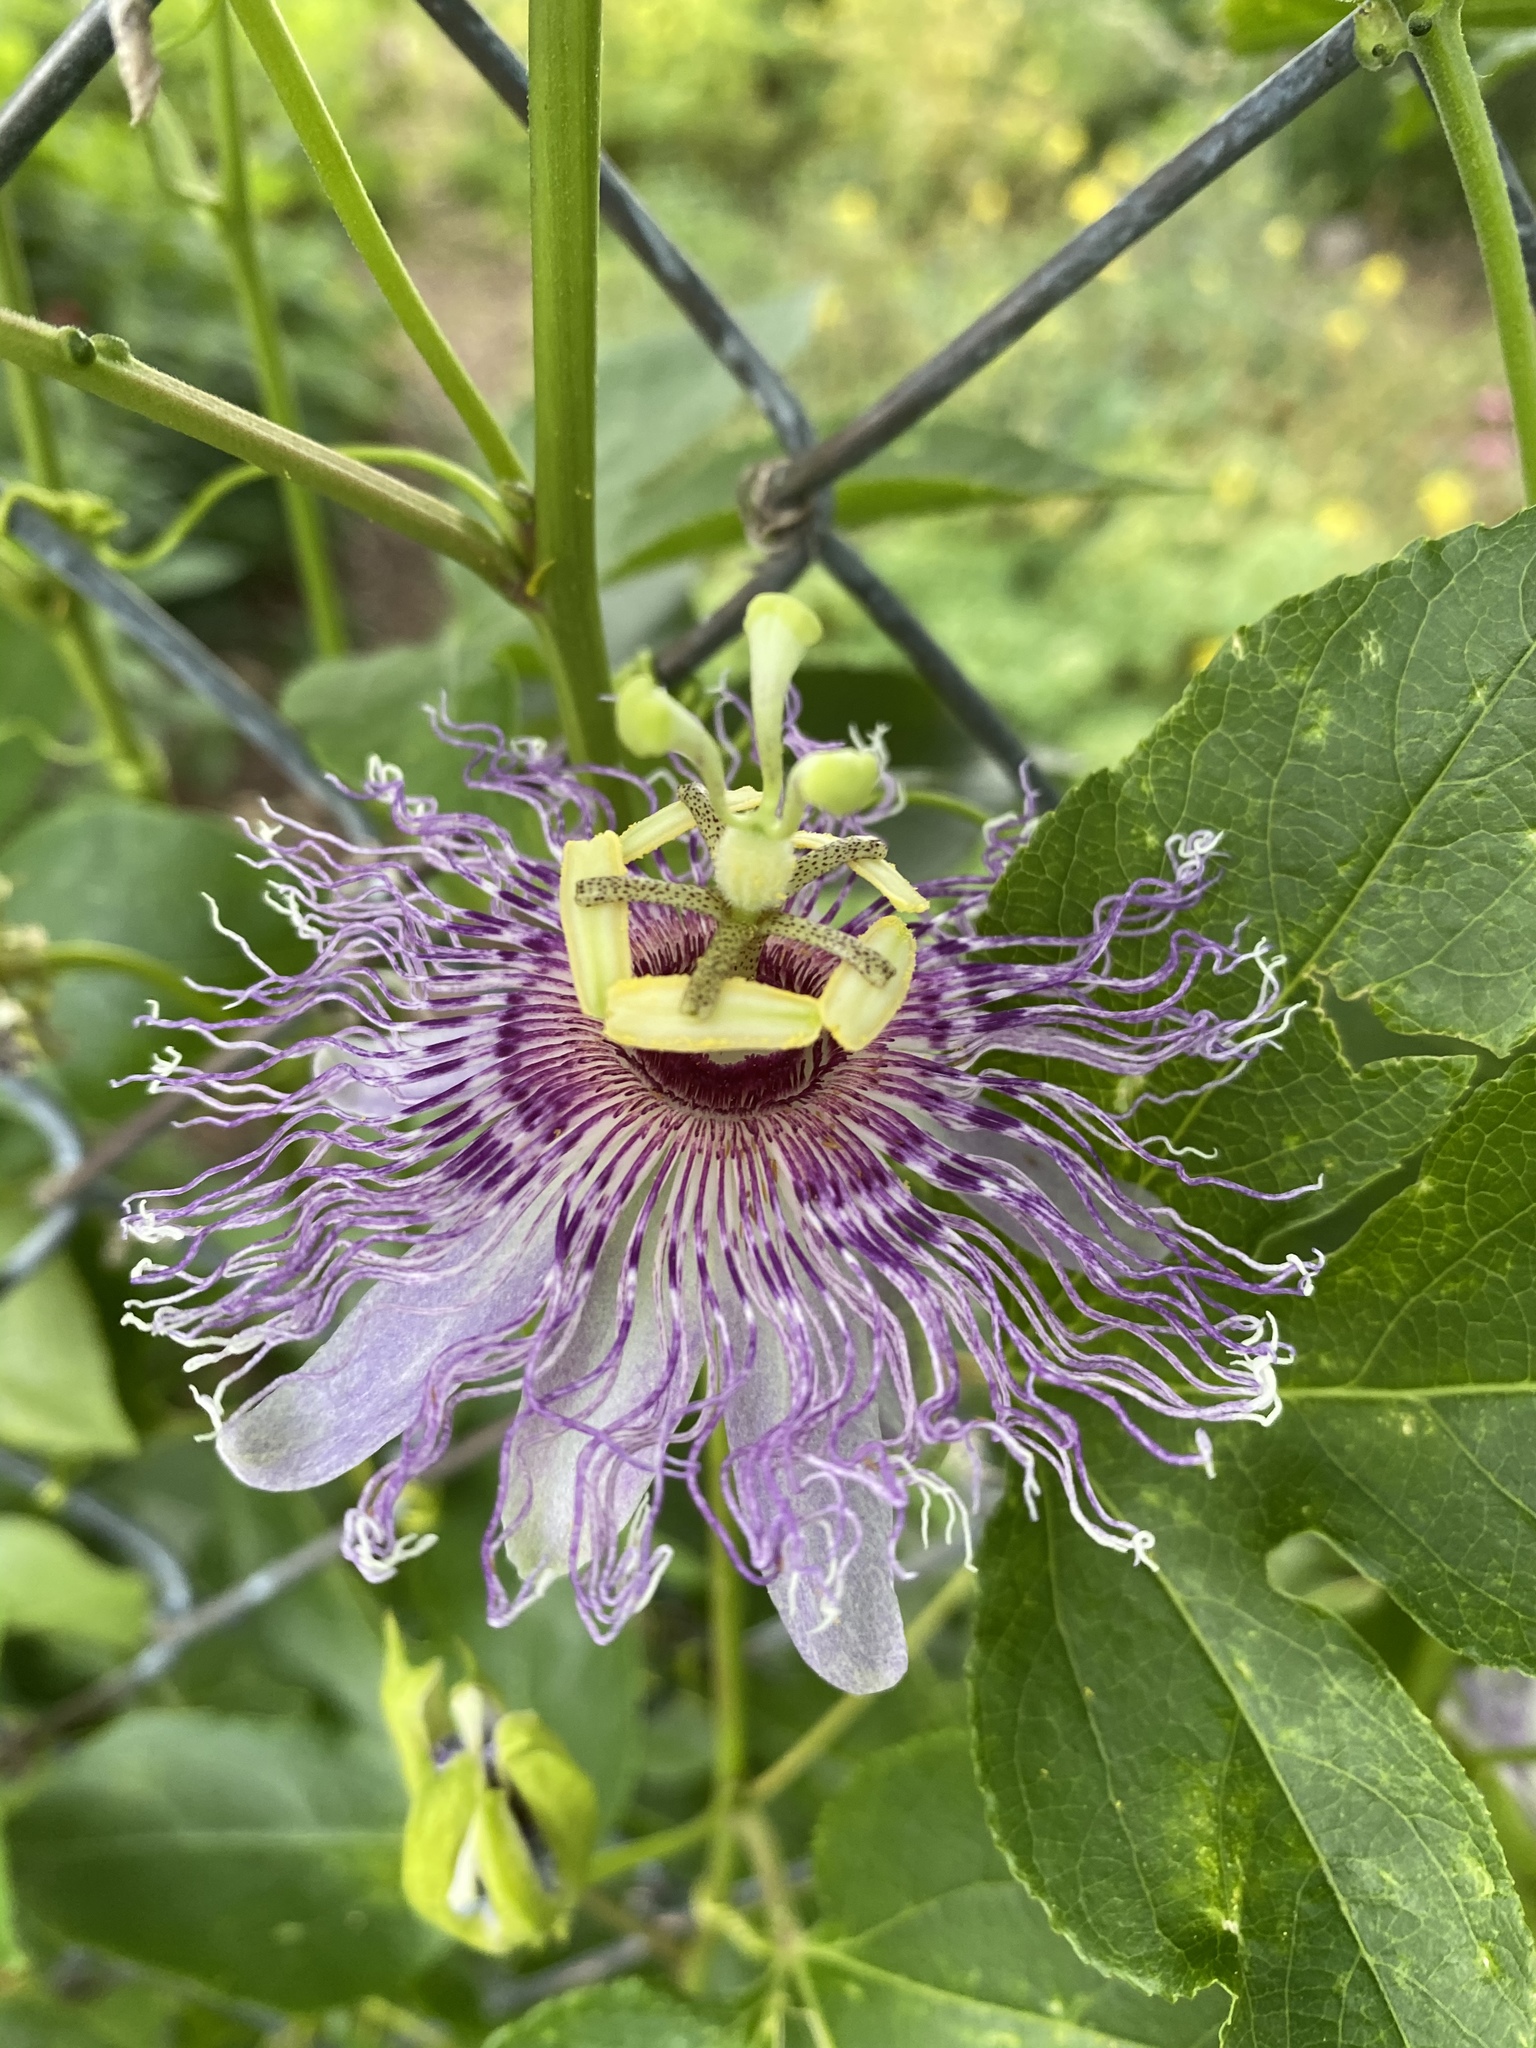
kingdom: Plantae
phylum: Tracheophyta
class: Magnoliopsida
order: Malpighiales
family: Passifloraceae
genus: Passiflora
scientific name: Passiflora incarnata
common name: Apricot-vine
